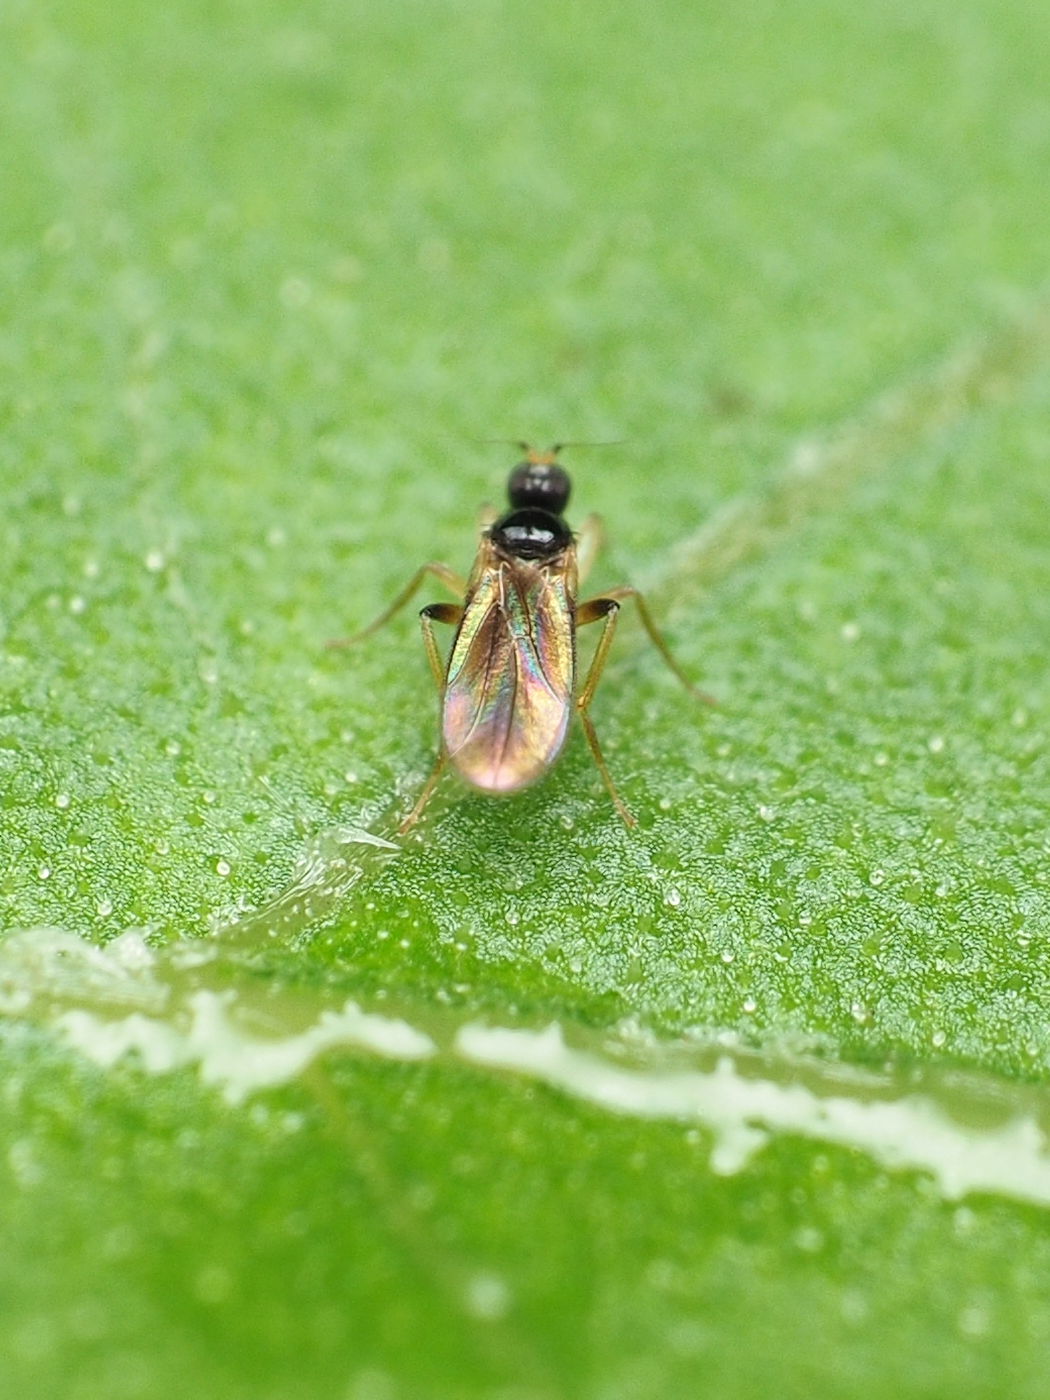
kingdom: Animalia
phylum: Arthropoda
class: Insecta
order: Diptera
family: Hybotidae
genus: Stilpon
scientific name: Stilpon ctenistes
